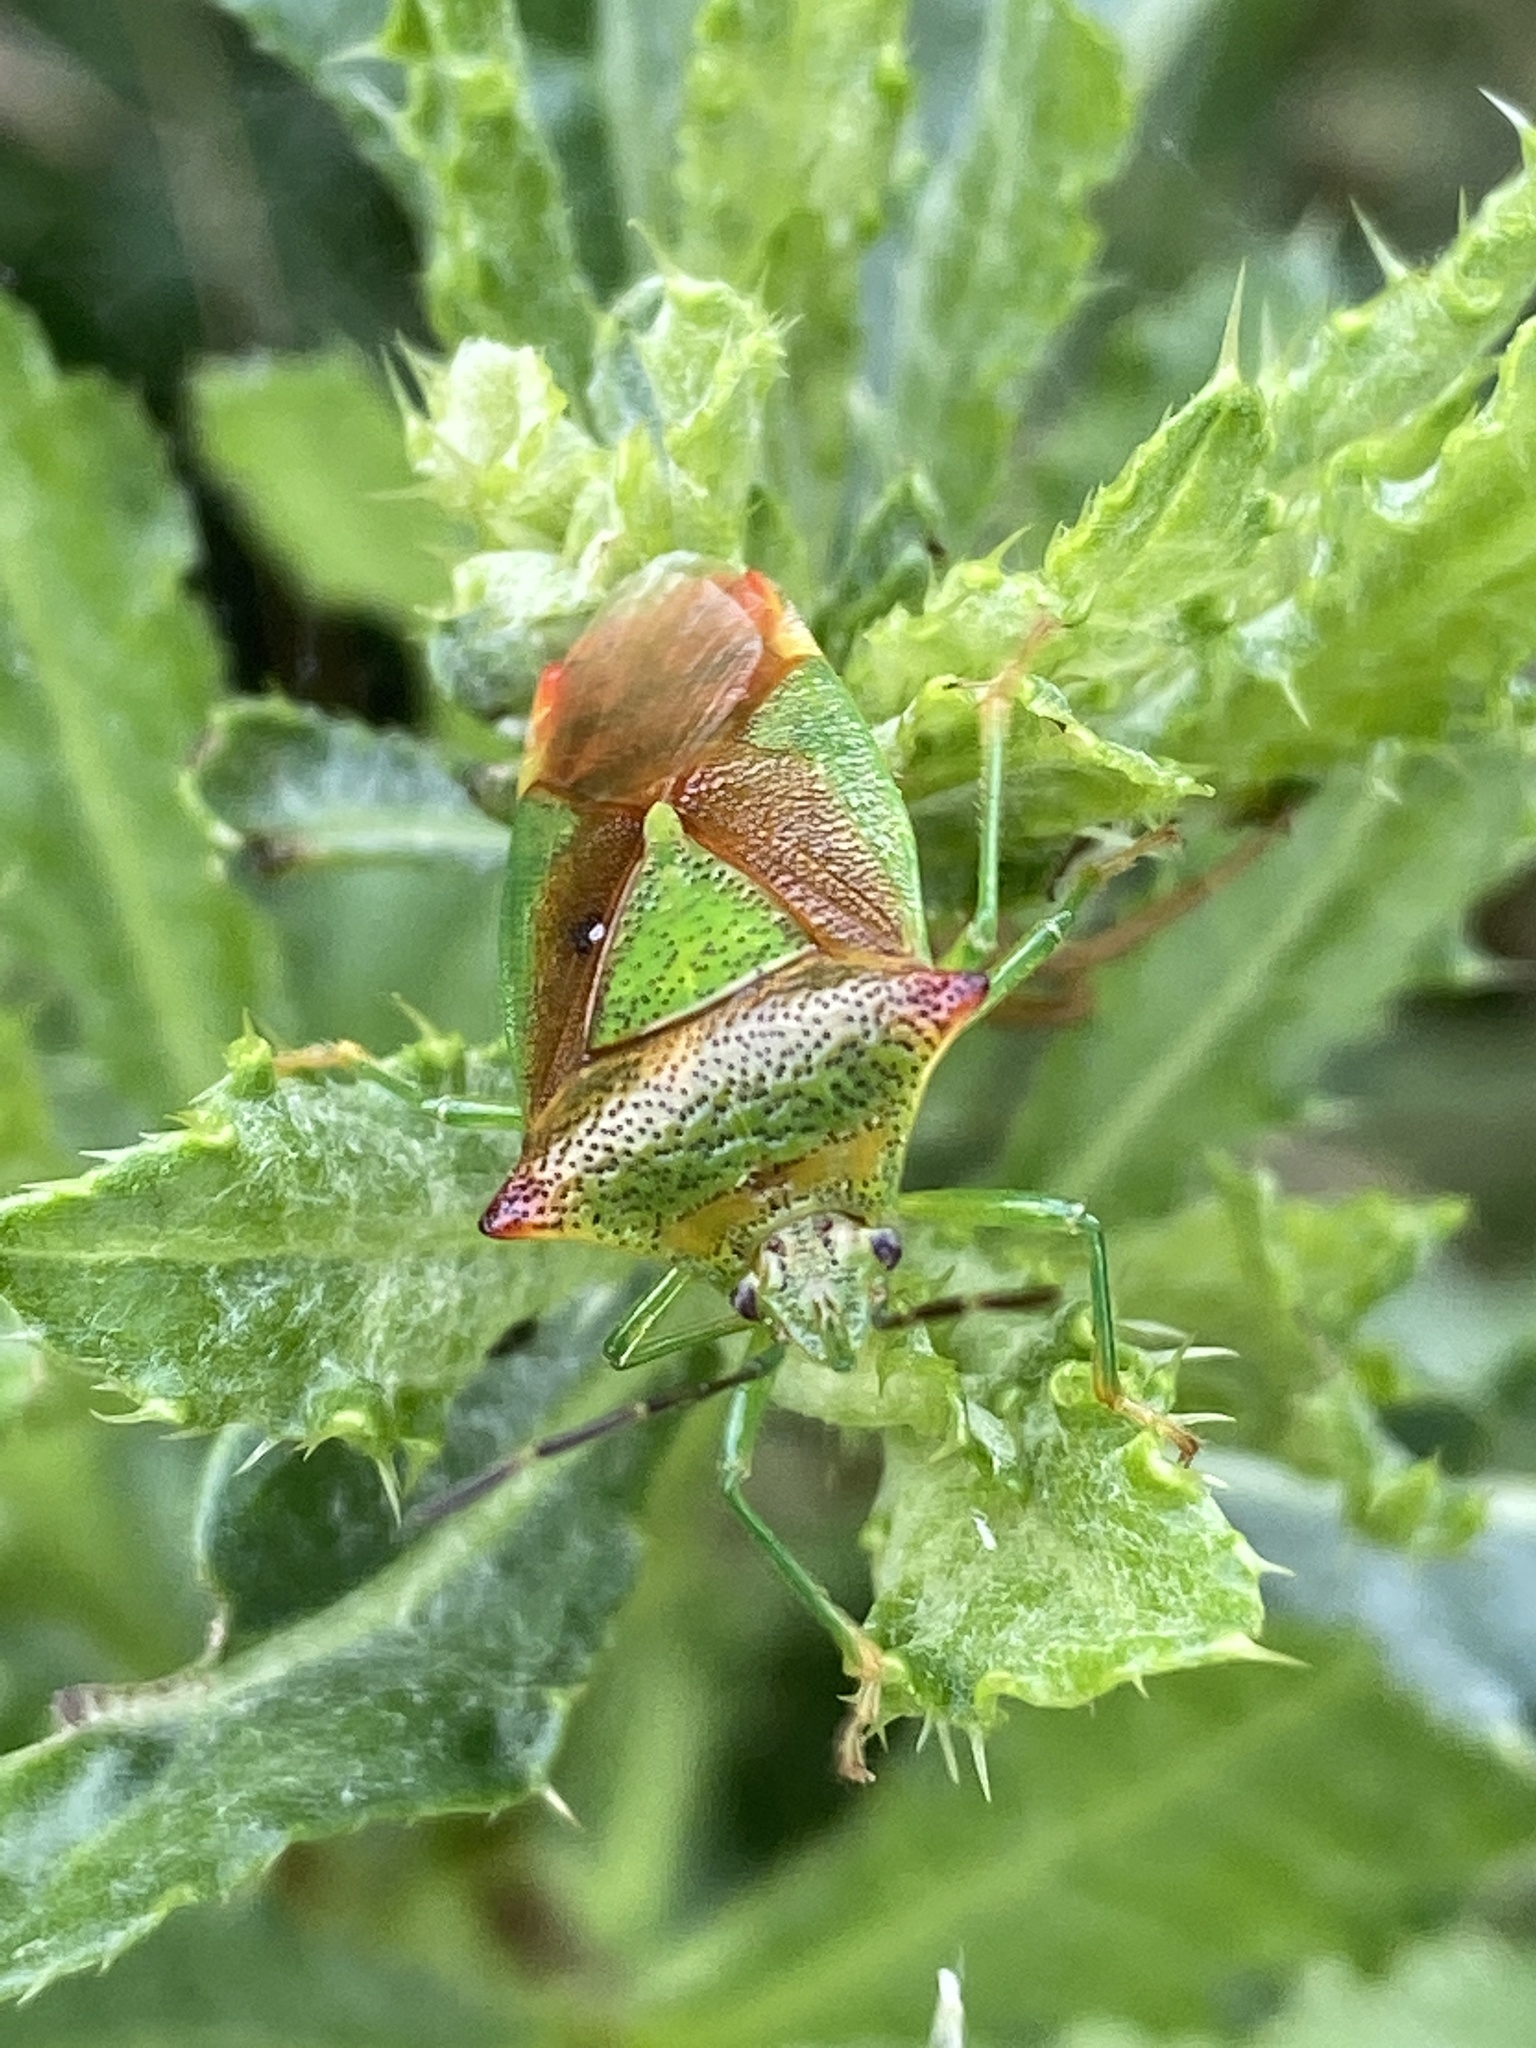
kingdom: Animalia
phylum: Arthropoda
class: Insecta
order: Hemiptera
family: Acanthosomatidae
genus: Acanthosoma
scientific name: Acanthosoma haemorrhoidale
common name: Hawthorn shieldbug
